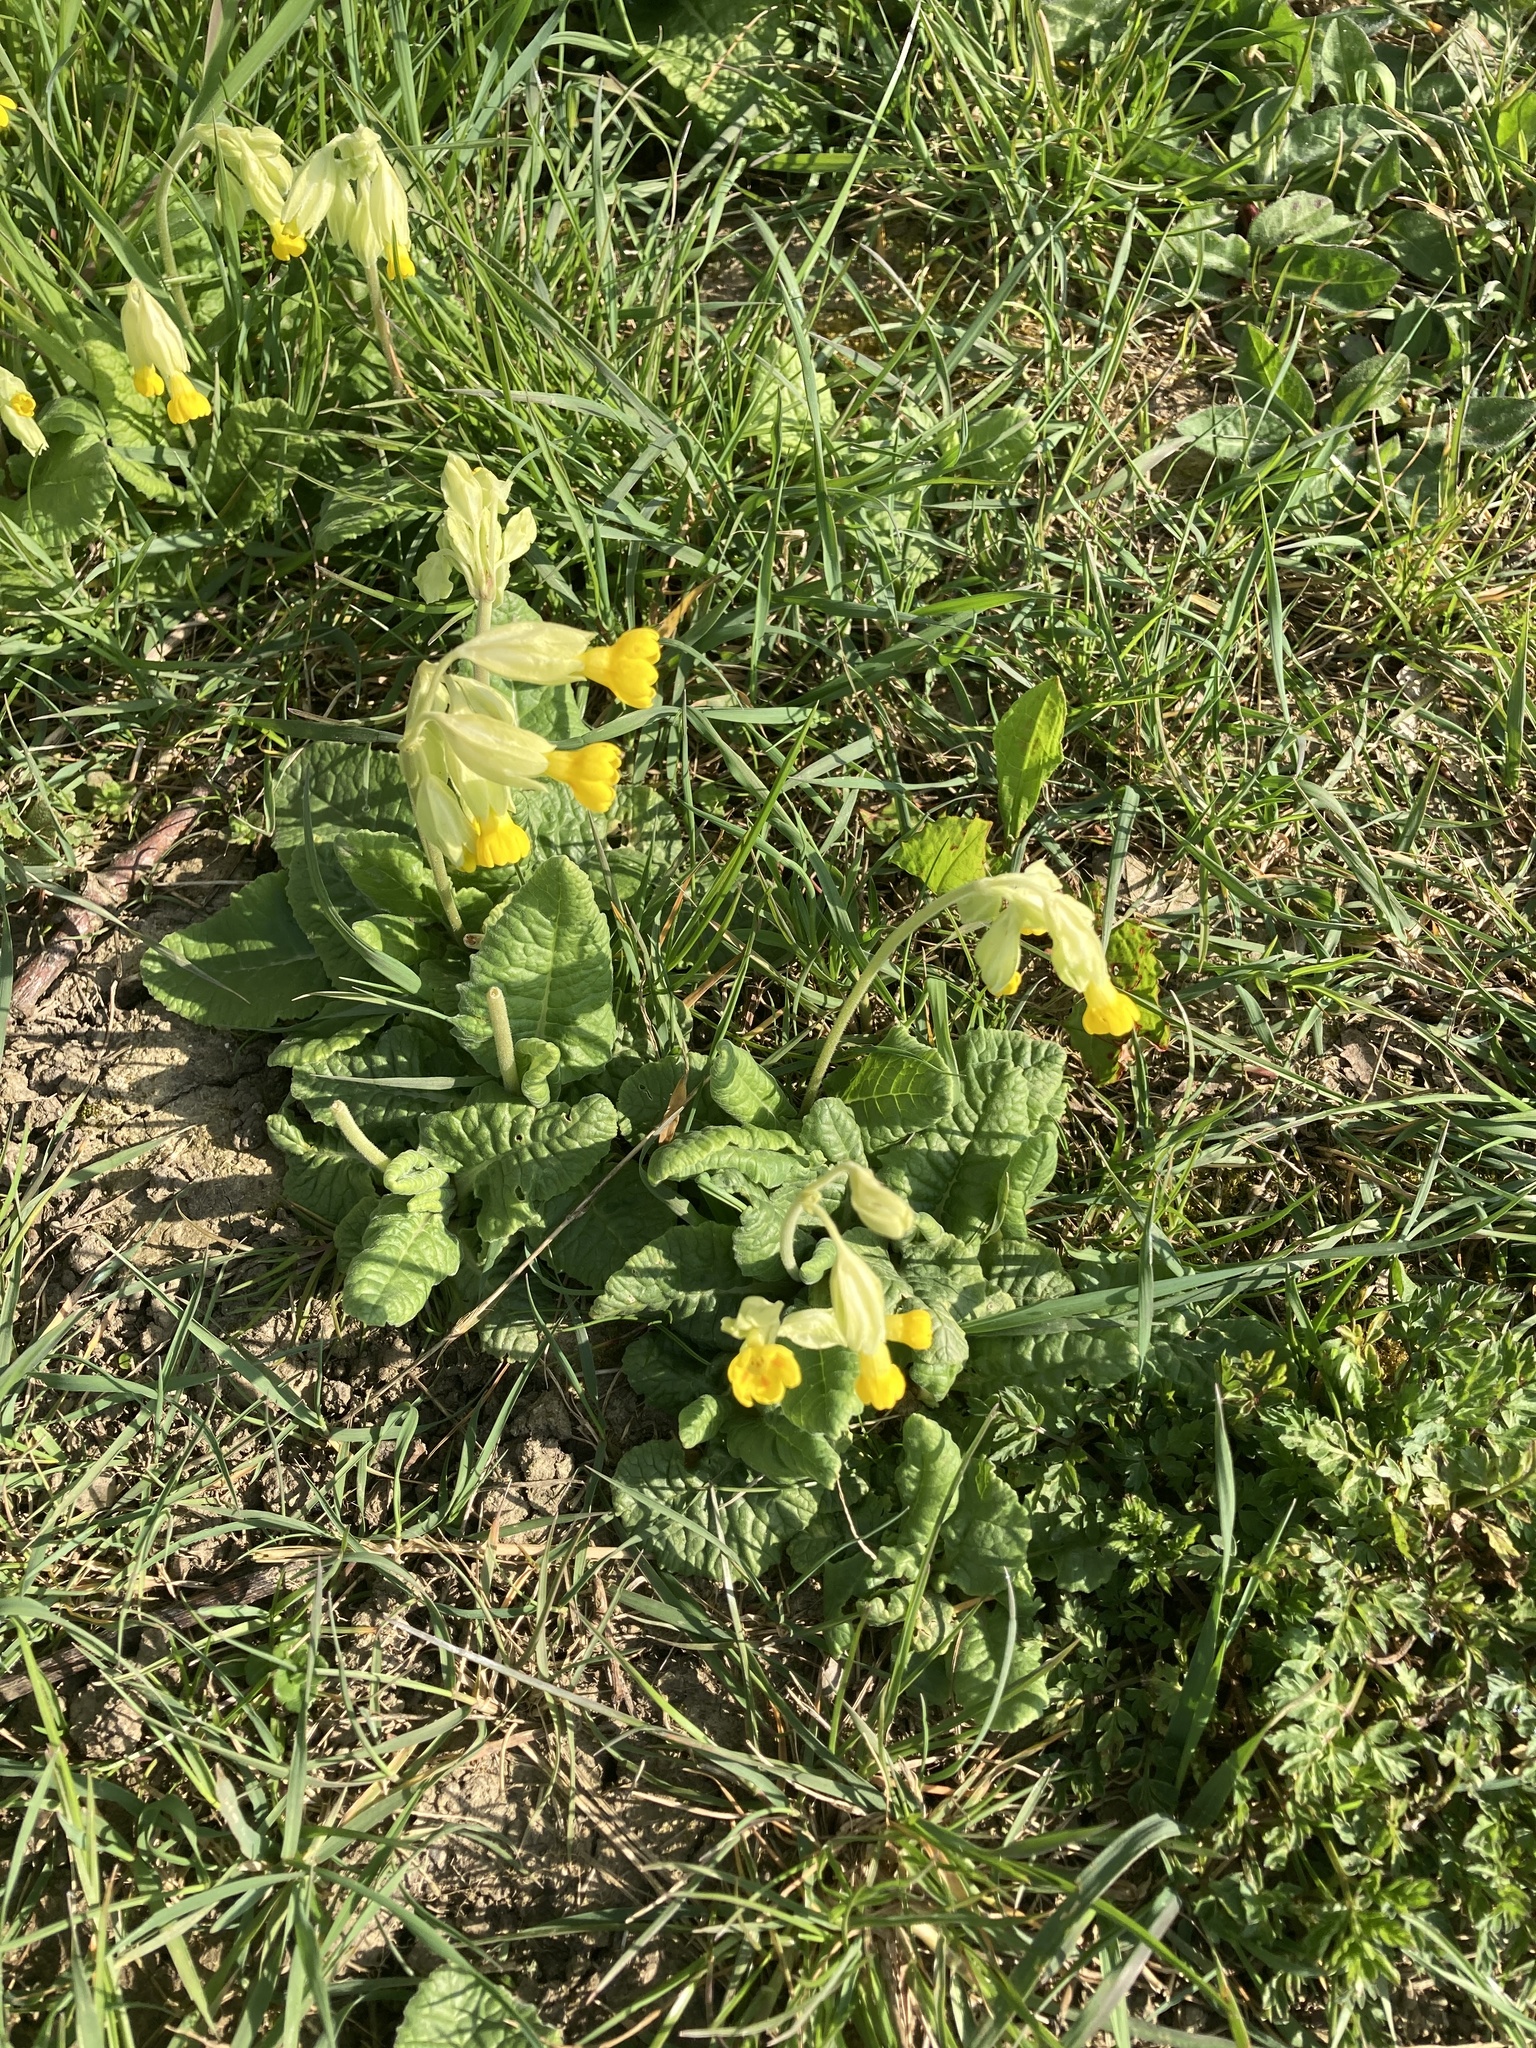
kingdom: Plantae
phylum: Tracheophyta
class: Magnoliopsida
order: Ericales
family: Primulaceae
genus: Primula
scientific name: Primula veris
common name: Cowslip
